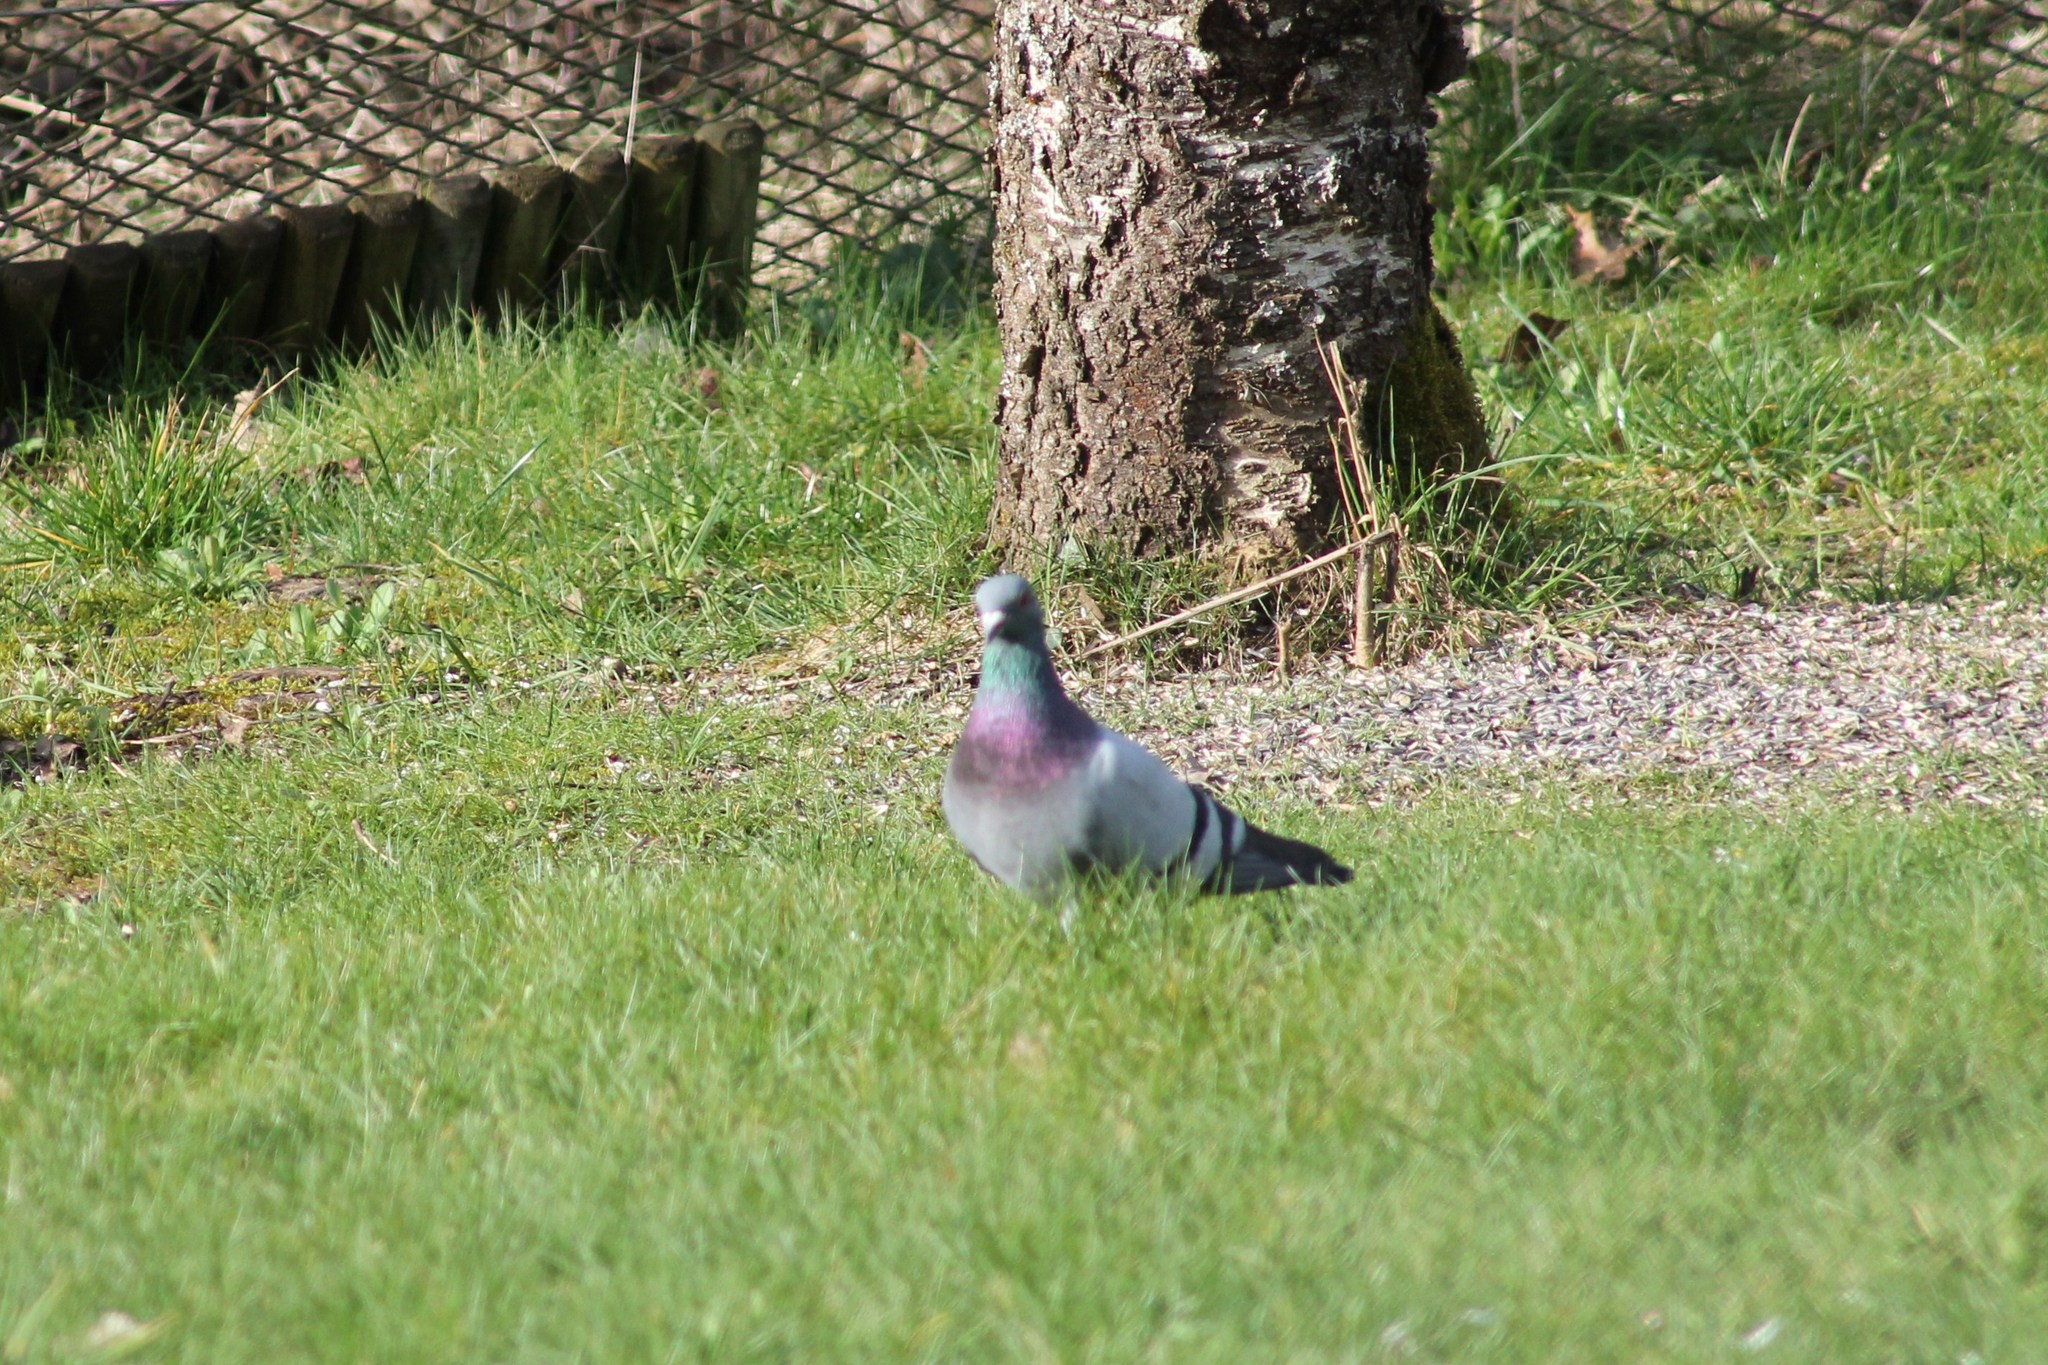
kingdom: Animalia
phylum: Chordata
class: Aves
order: Columbiformes
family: Columbidae
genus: Columba
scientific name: Columba livia
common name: Rock pigeon
